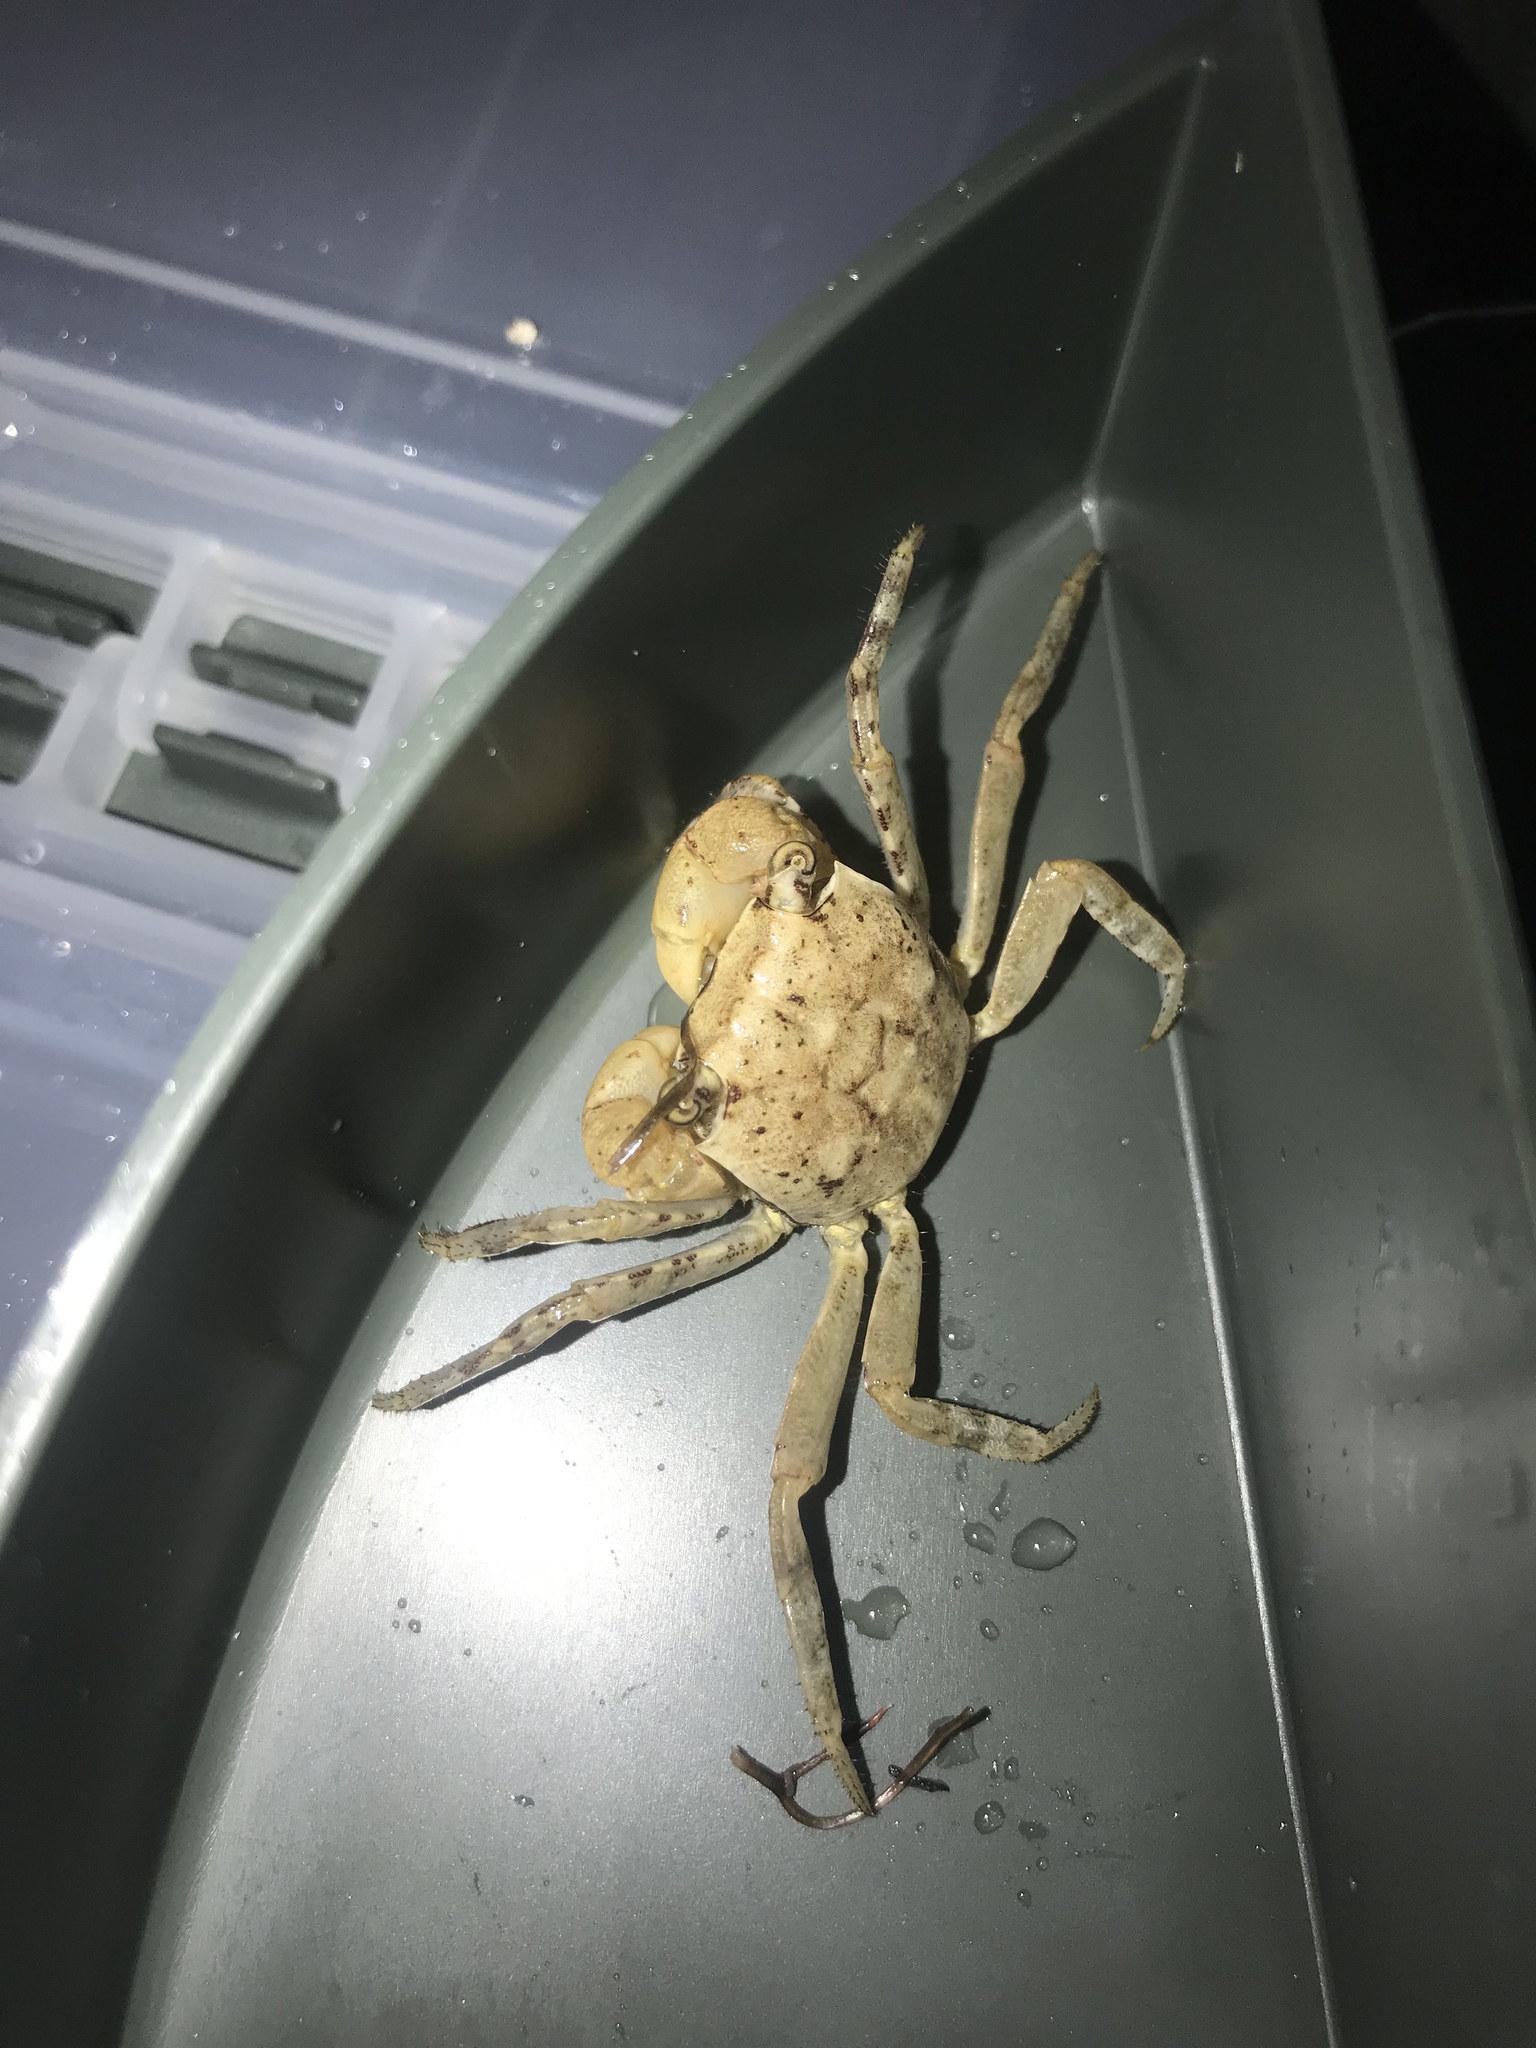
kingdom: Animalia
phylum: Arthropoda
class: Malacostraca
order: Decapoda
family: Sesarmidae
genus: Armases
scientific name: Armases cinereum
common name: Squareback marsh crab
